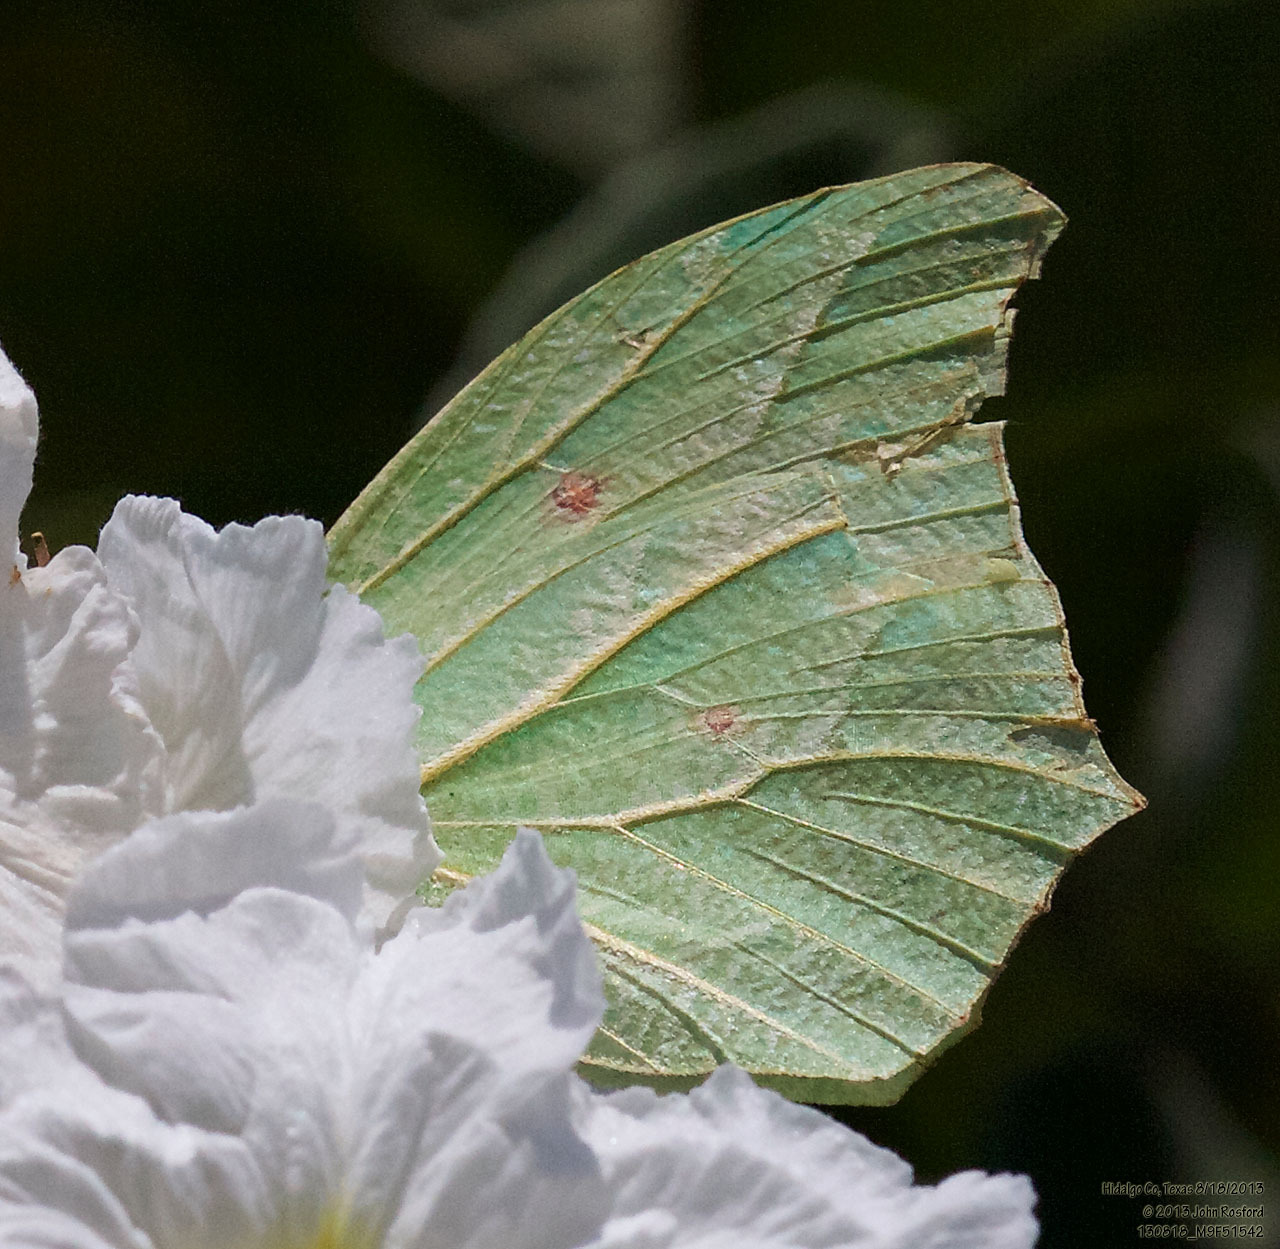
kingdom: Animalia
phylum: Arthropoda
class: Insecta
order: Lepidoptera
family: Pieridae
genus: Anteos
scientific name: Anteos clorinde
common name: White angled sulphur
